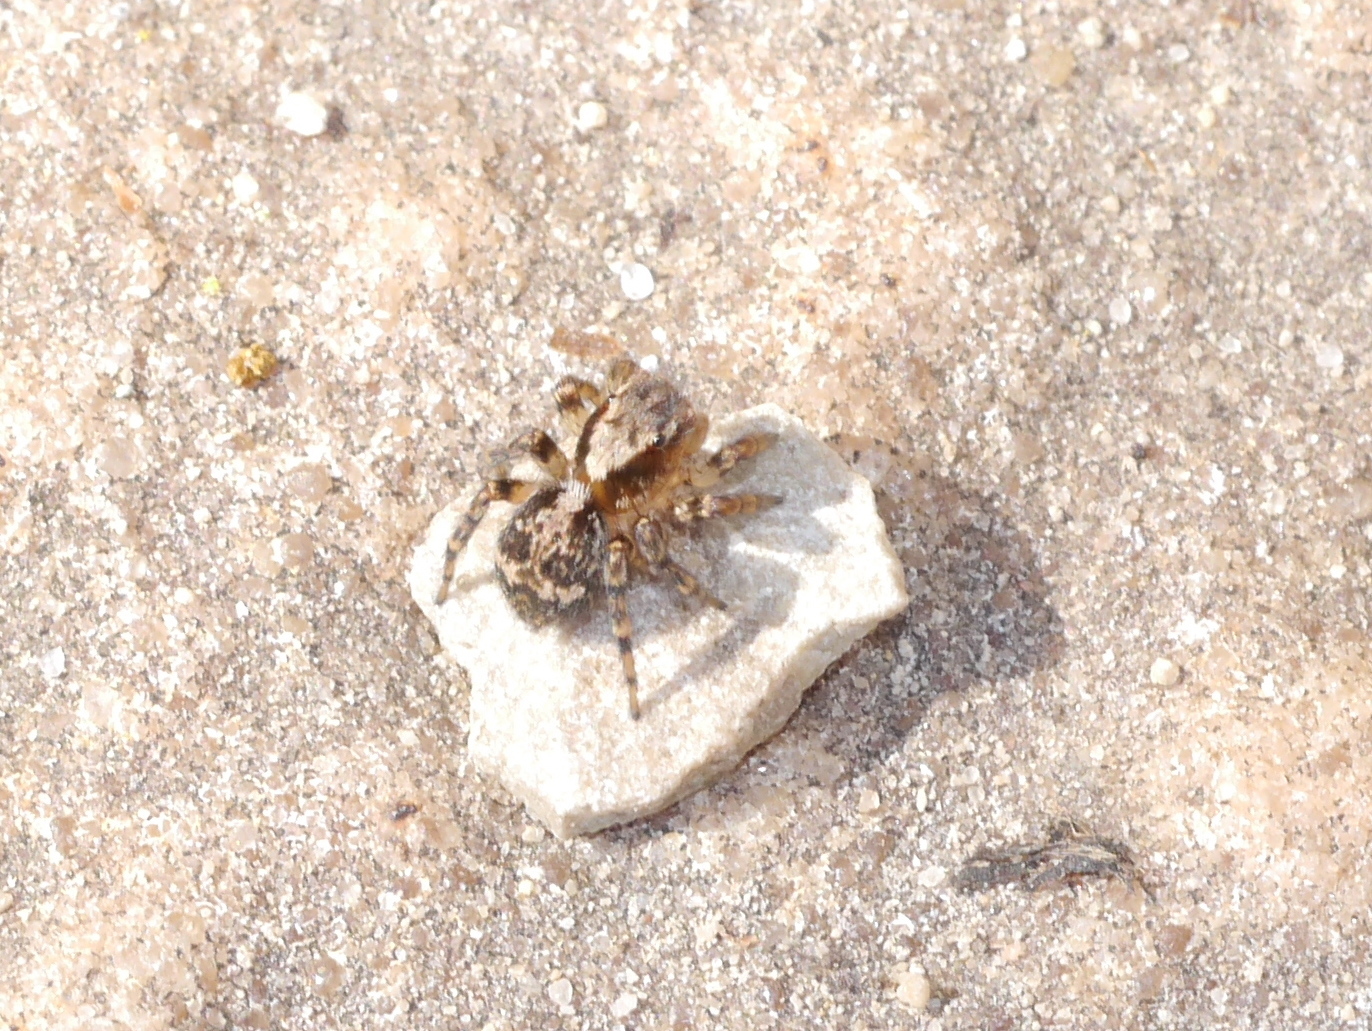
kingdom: Animalia
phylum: Arthropoda
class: Arachnida
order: Araneae
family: Salticidae
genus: Naphrys
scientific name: Naphrys pulex
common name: Flea jumping spider
